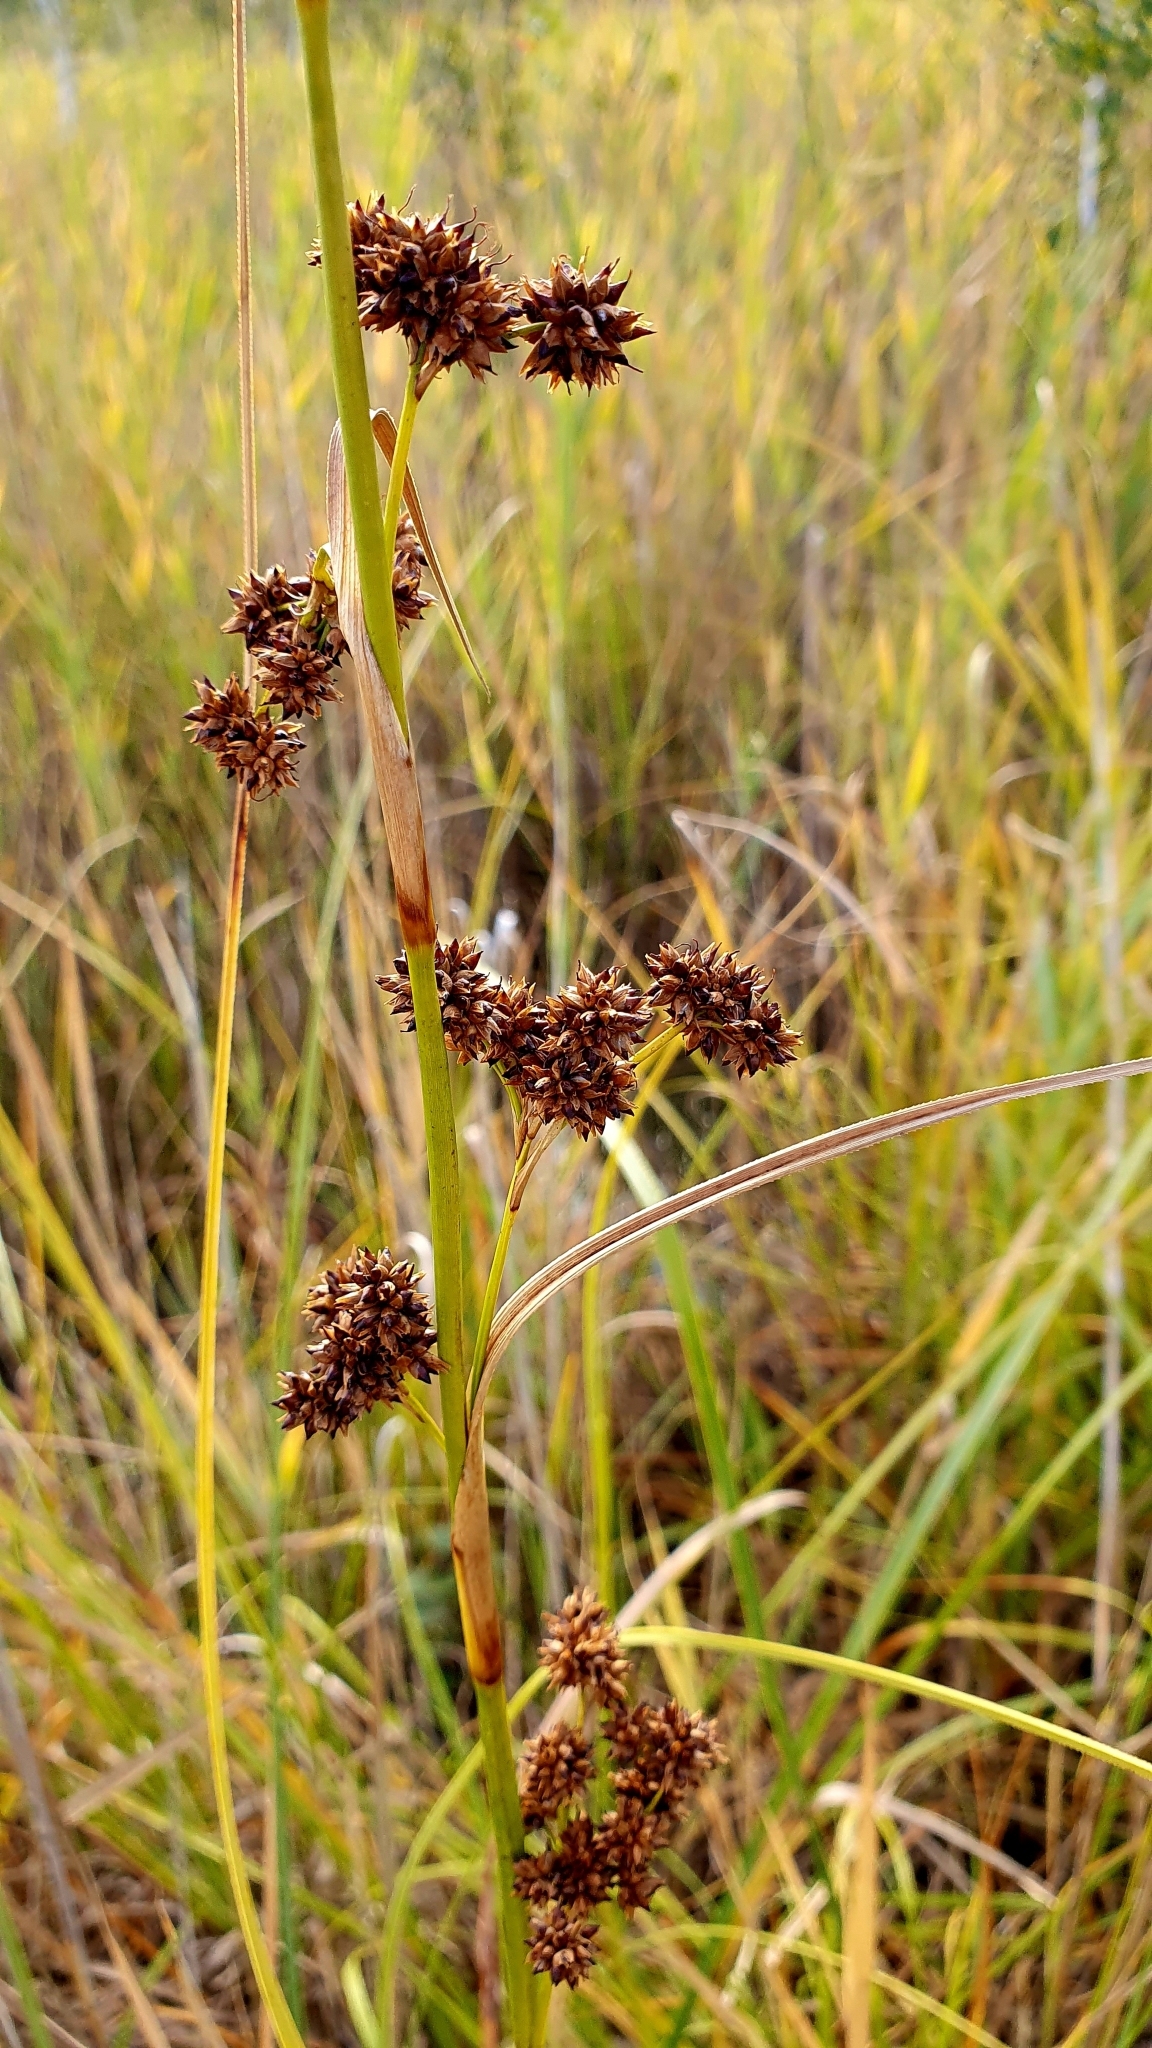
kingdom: Plantae
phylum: Tracheophyta
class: Liliopsida
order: Poales
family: Cyperaceae
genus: Cladium
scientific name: Cladium mariscus
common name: Great fen-sedge
